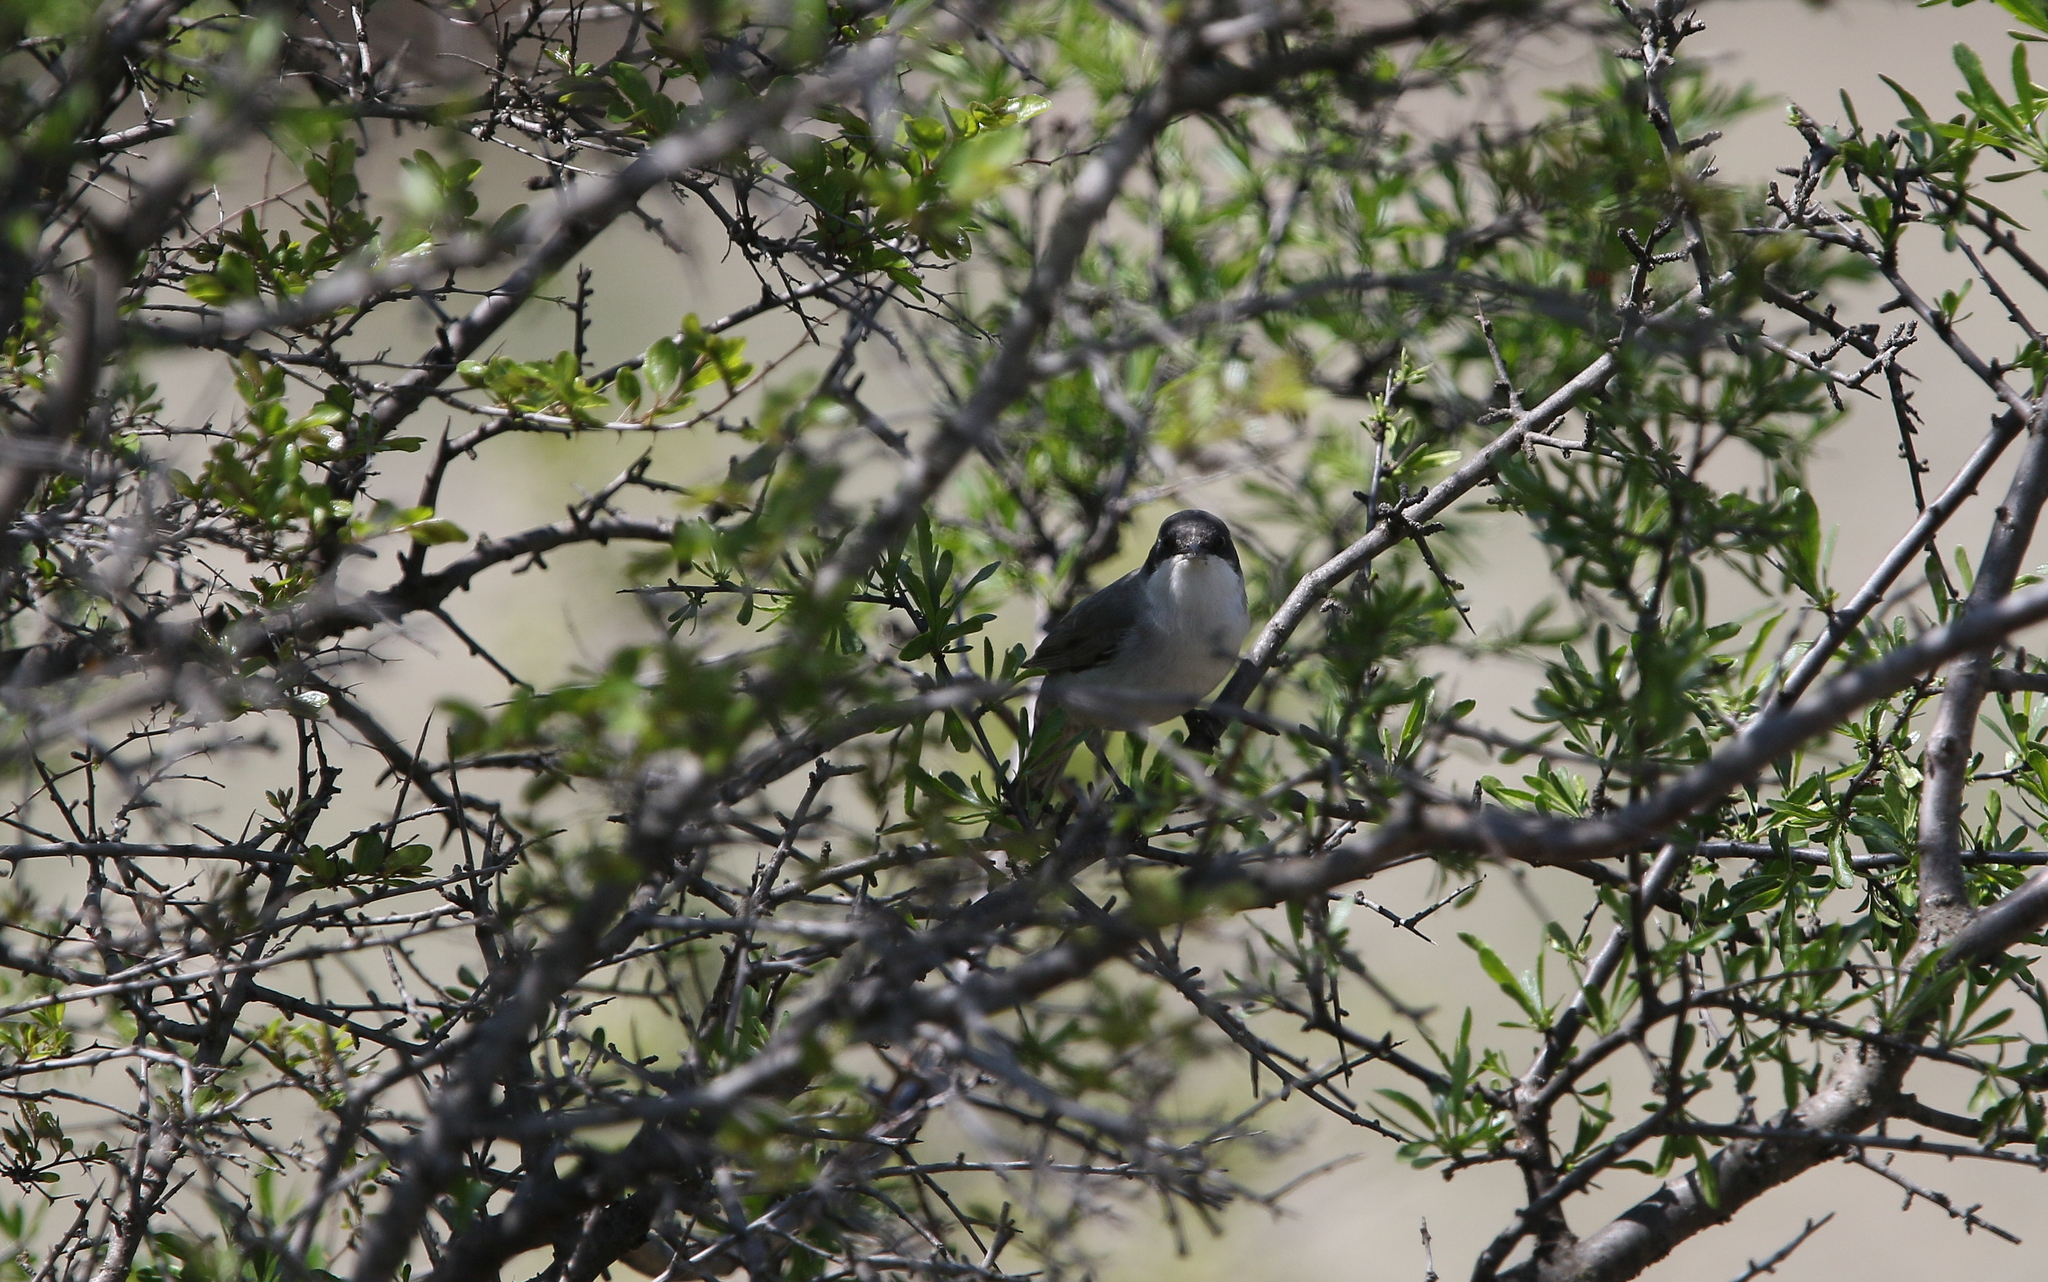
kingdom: Animalia
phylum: Chordata
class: Aves
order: Passeriformes
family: Sylviidae
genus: Sylvia
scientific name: Sylvia crassirostris
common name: Eastern orphean warbler
